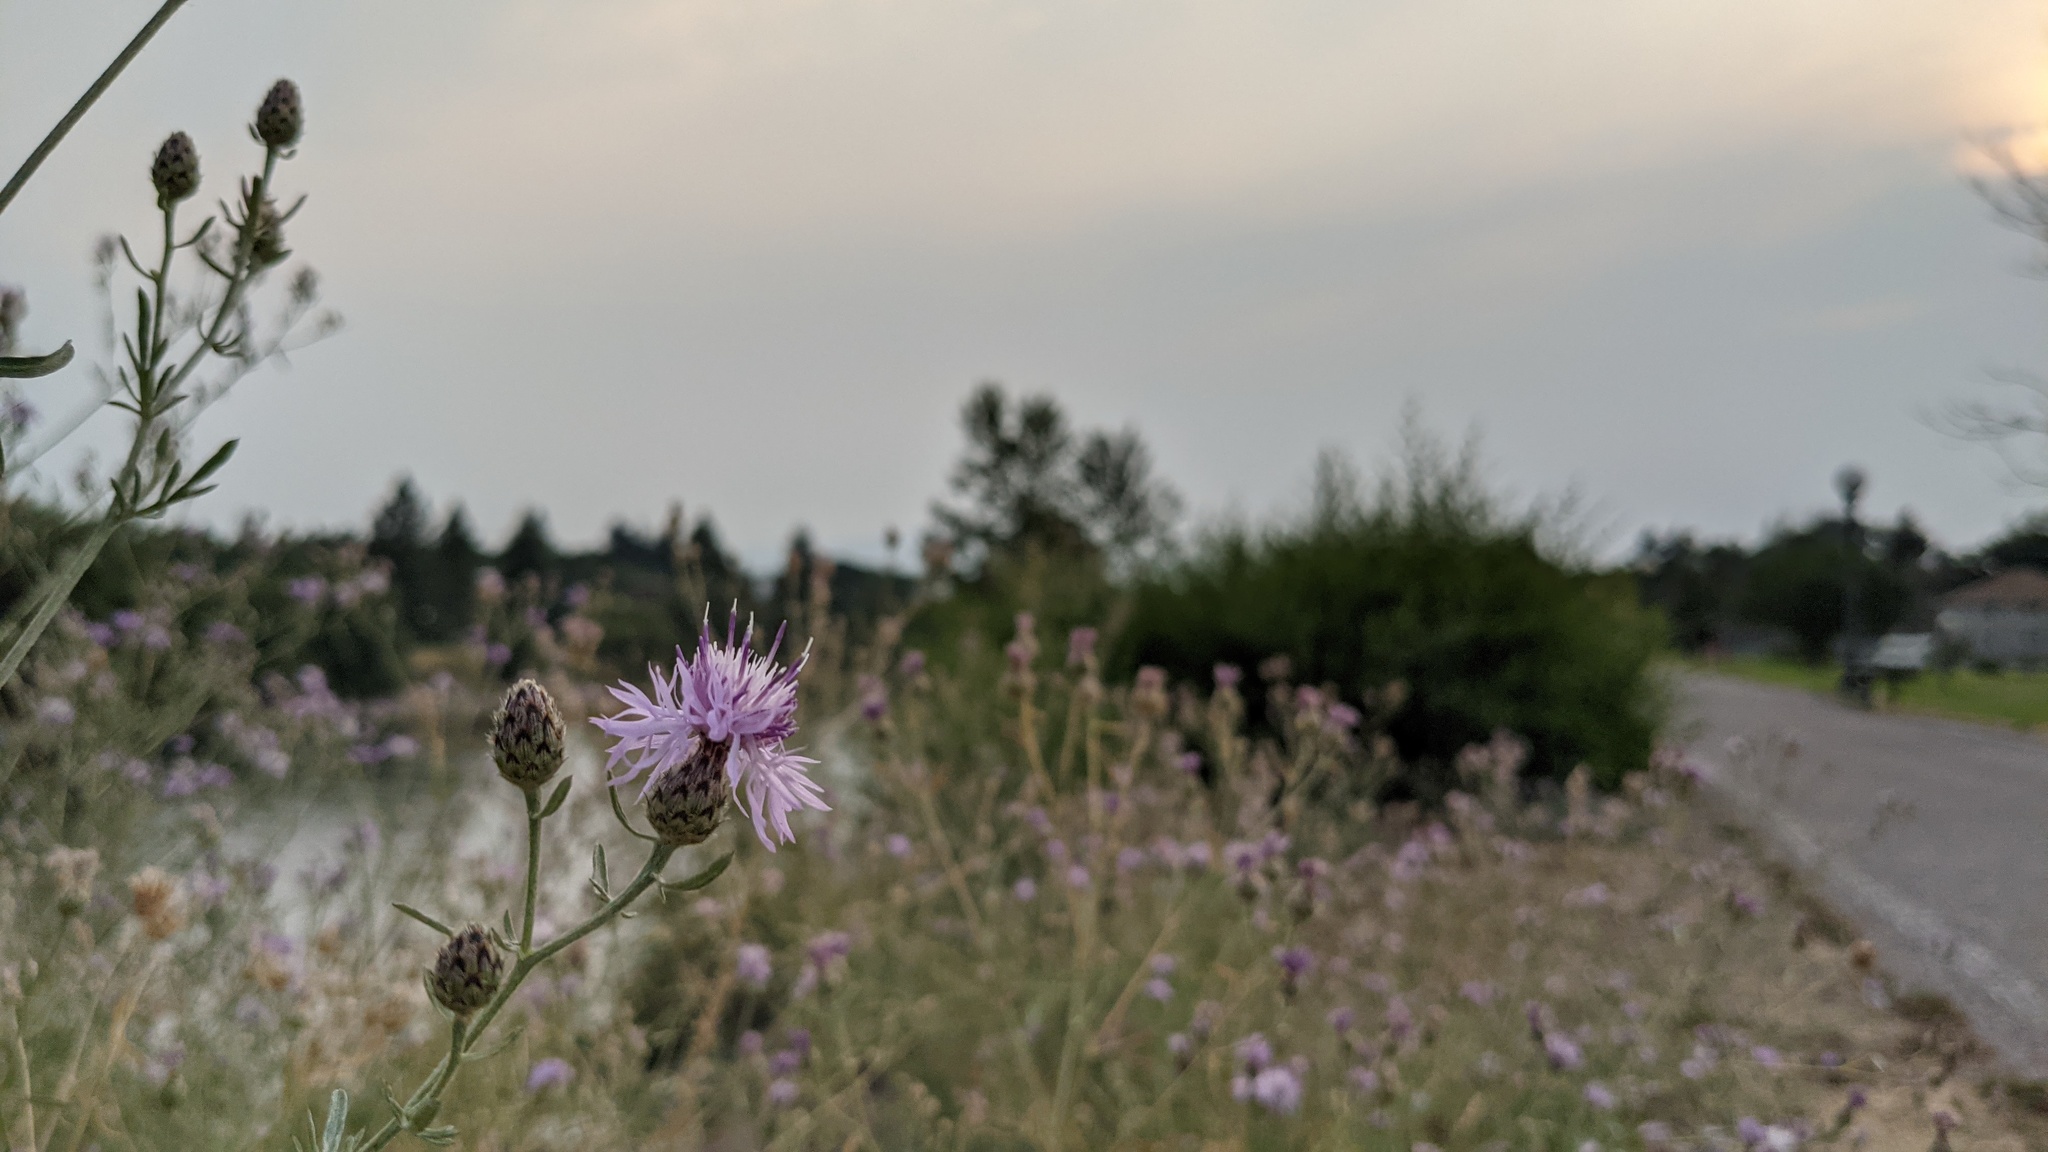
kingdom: Plantae
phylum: Tracheophyta
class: Magnoliopsida
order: Asterales
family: Asteraceae
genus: Centaurea
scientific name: Centaurea stoebe
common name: Spotted knapweed
